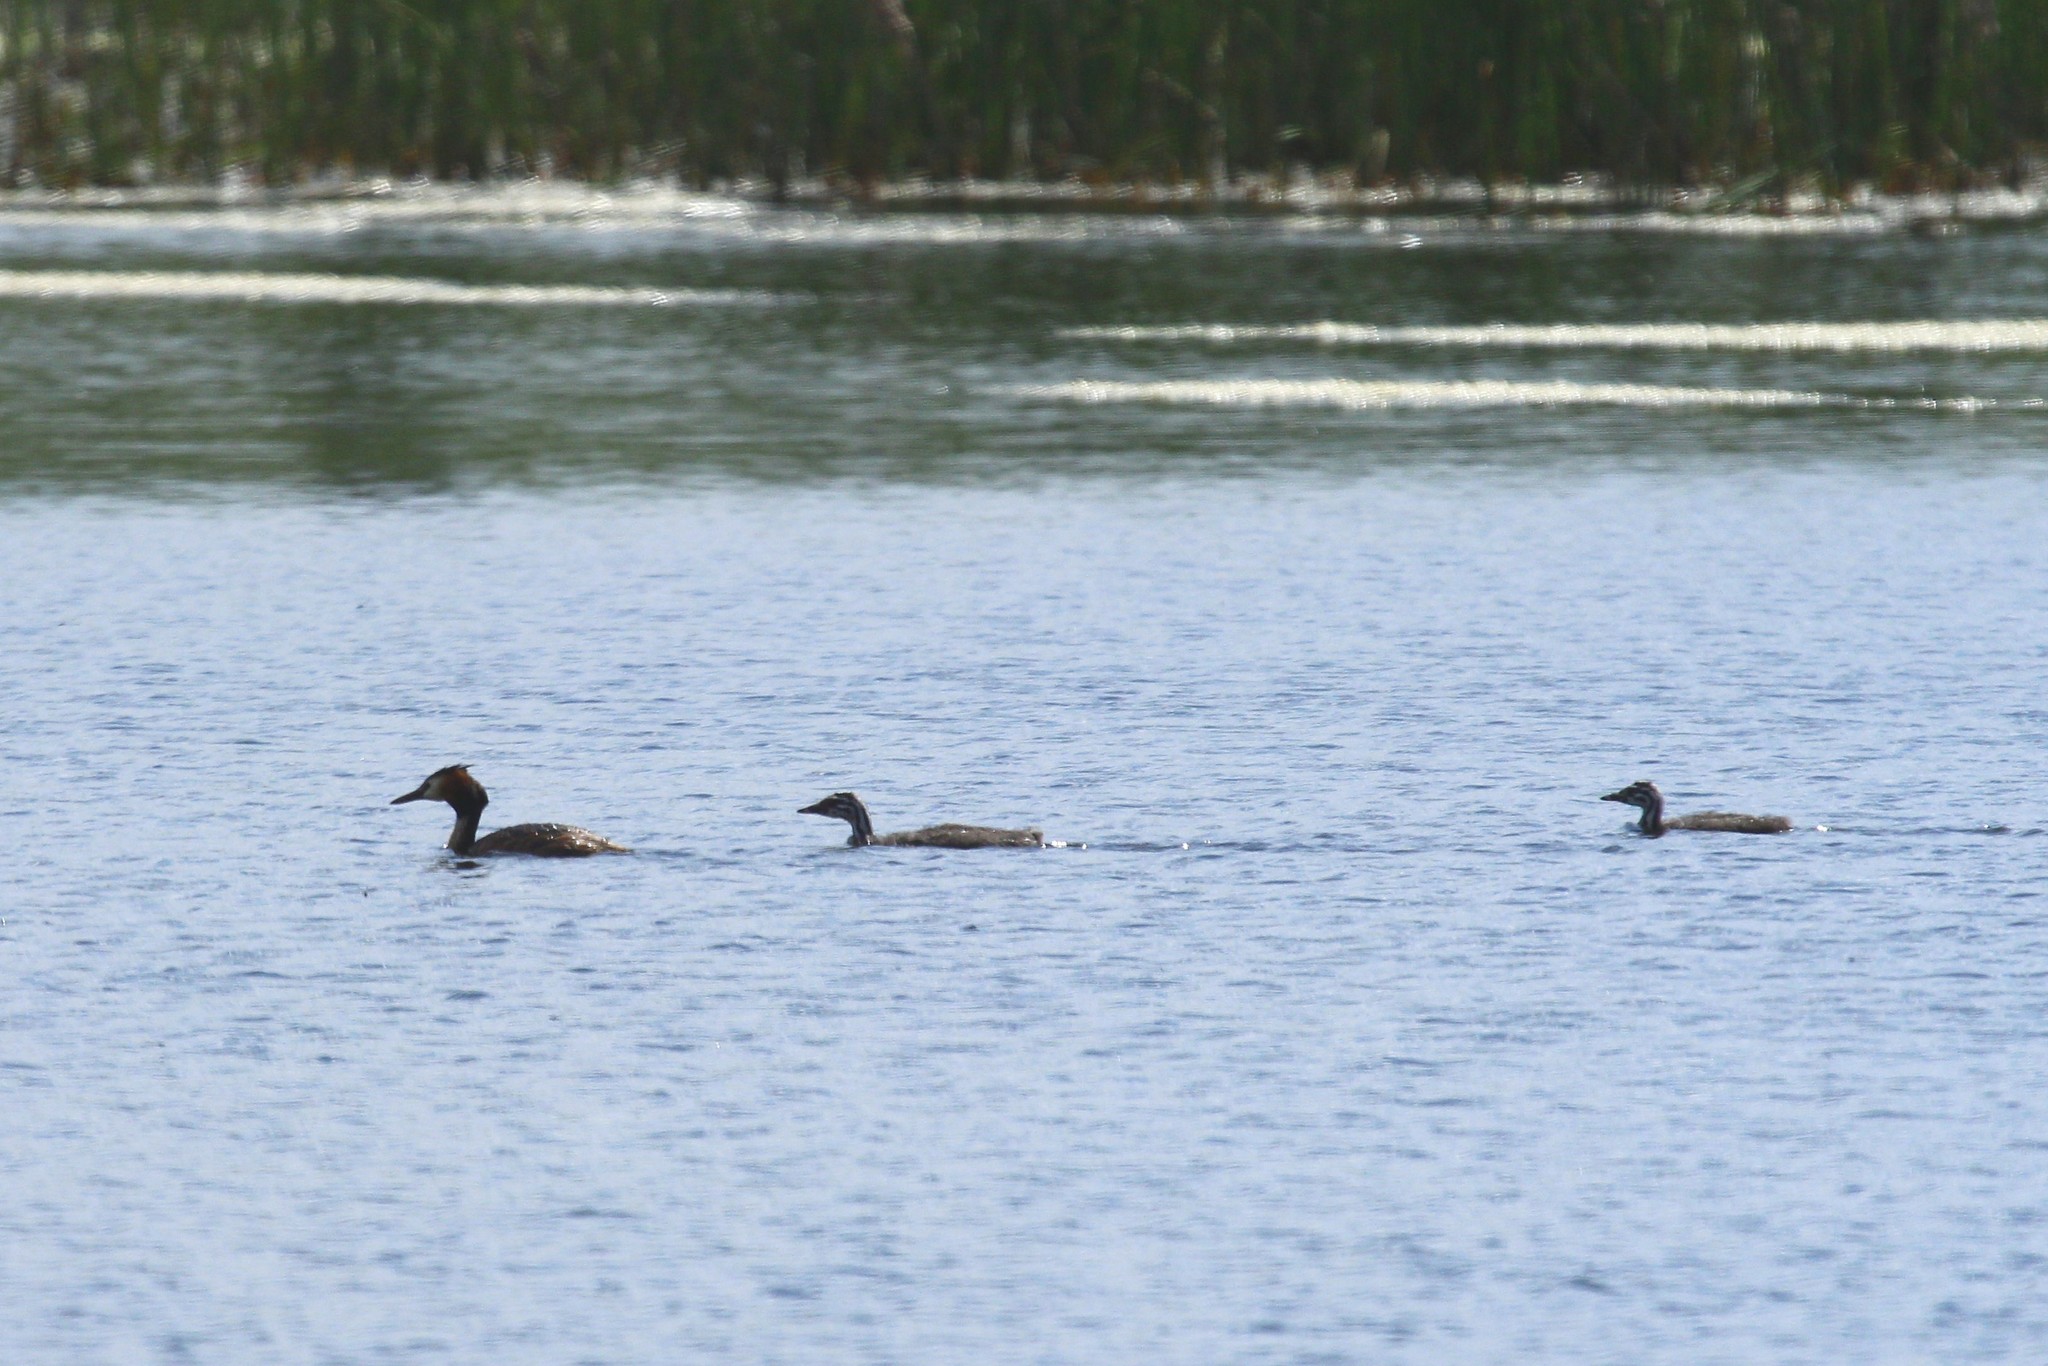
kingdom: Animalia
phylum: Chordata
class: Aves
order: Podicipediformes
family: Podicipedidae
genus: Podiceps
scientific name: Podiceps cristatus
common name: Great crested grebe
